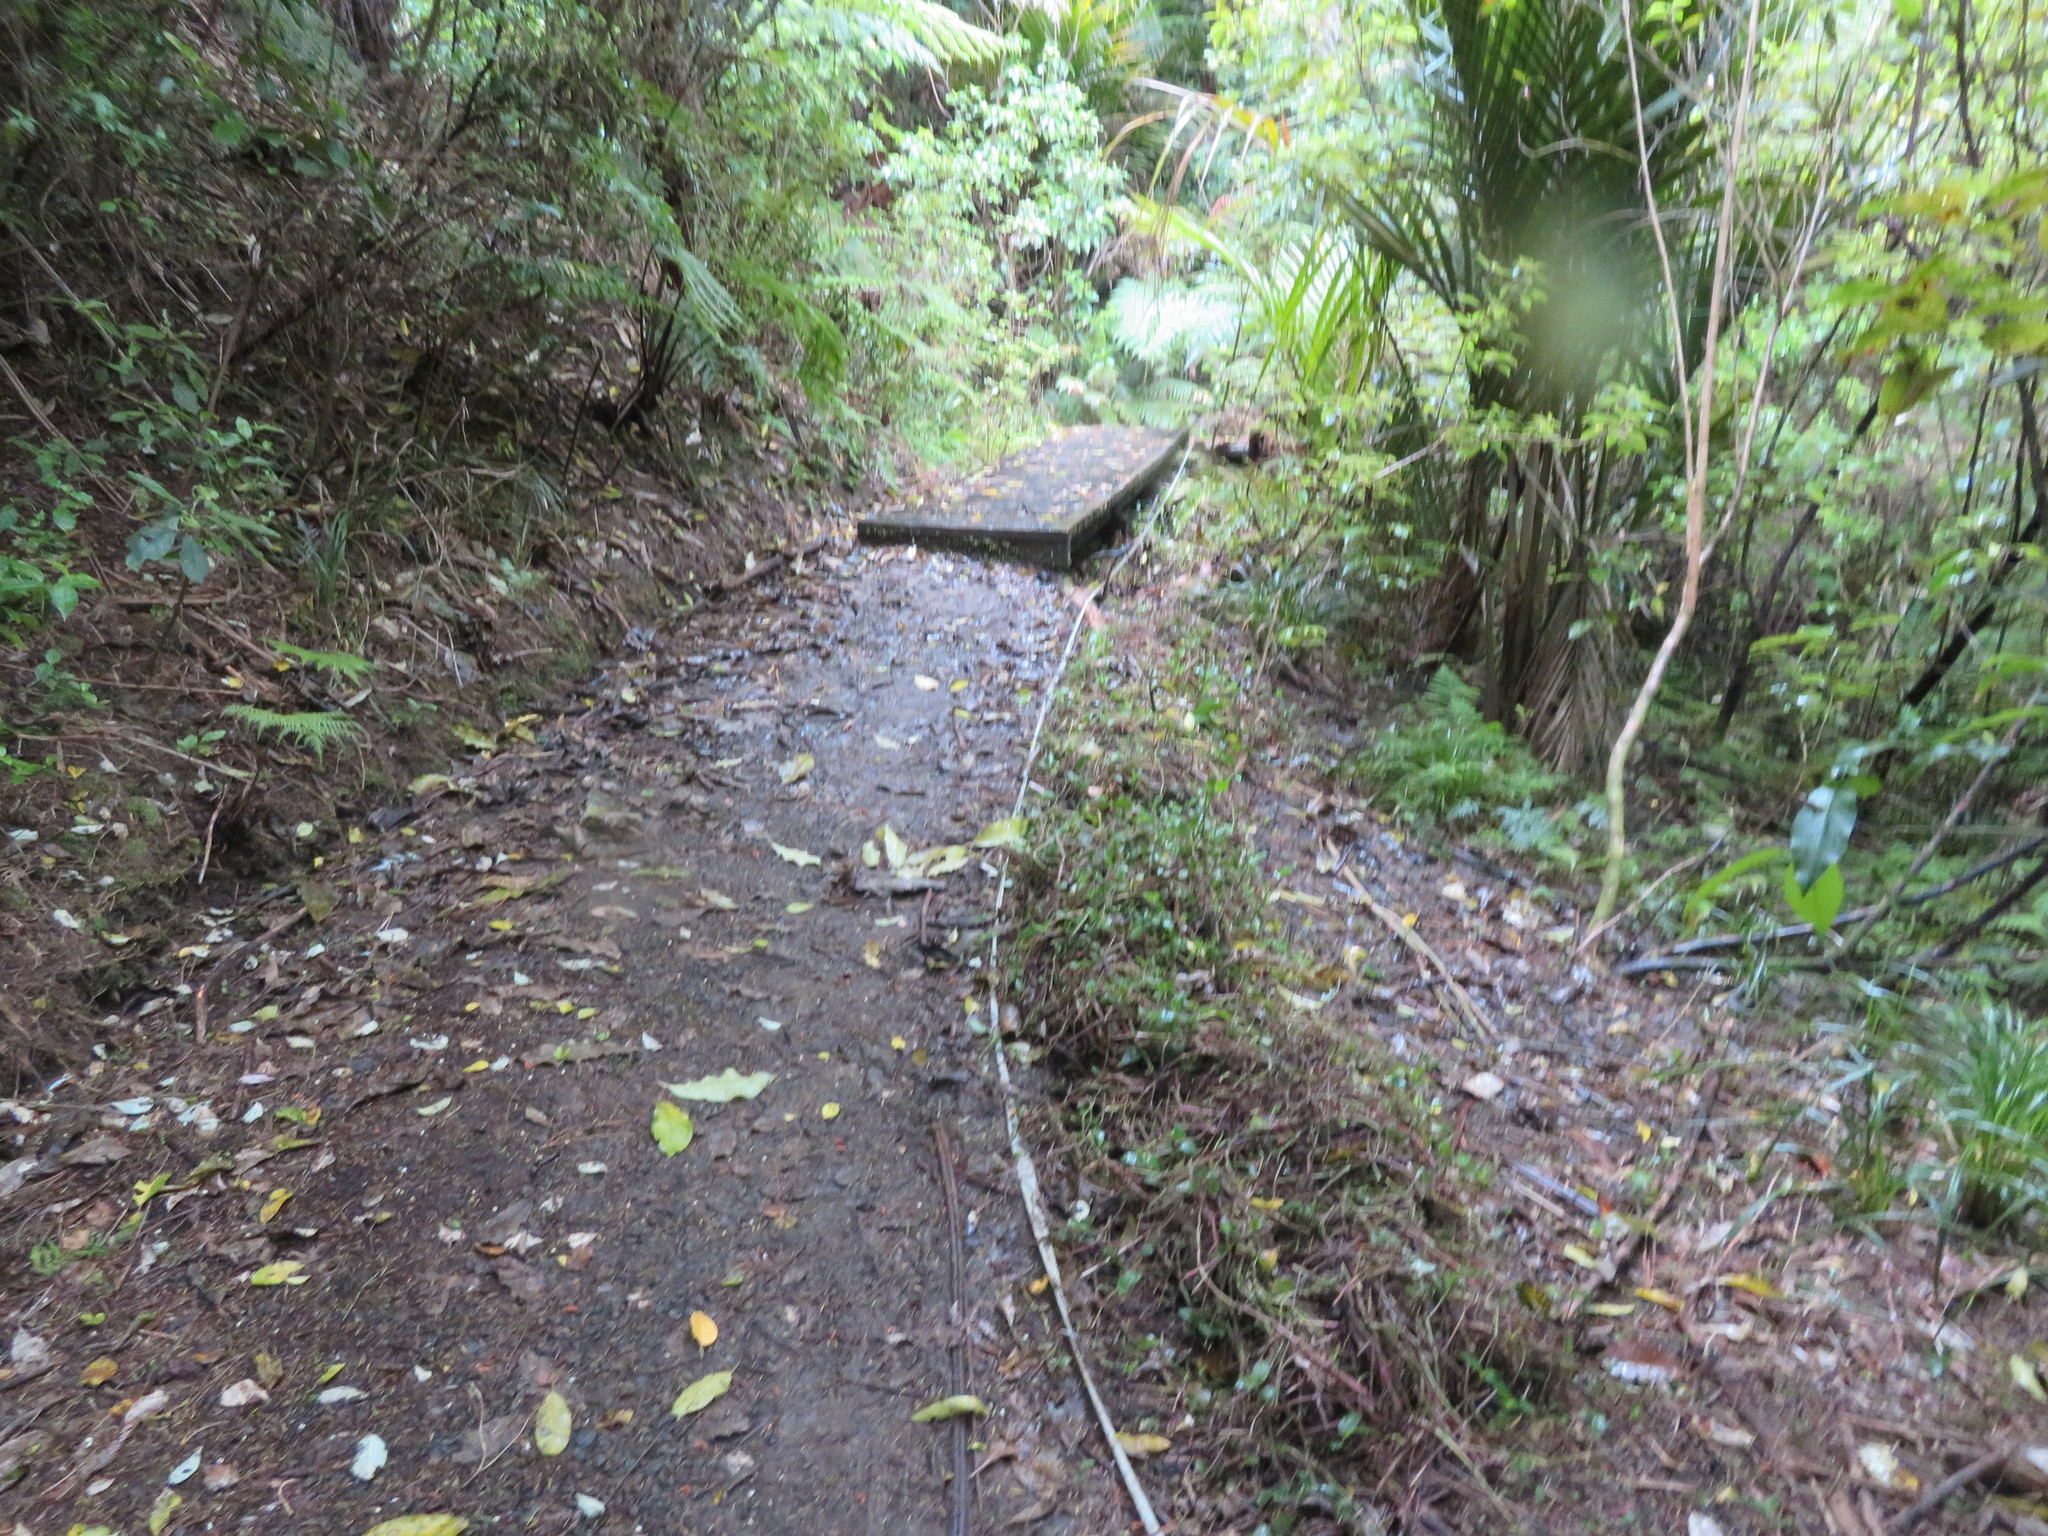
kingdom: Plantae
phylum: Tracheophyta
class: Liliopsida
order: Commelinales
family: Commelinaceae
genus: Tradescantia
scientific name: Tradescantia fluminensis
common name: Wandering-jew
